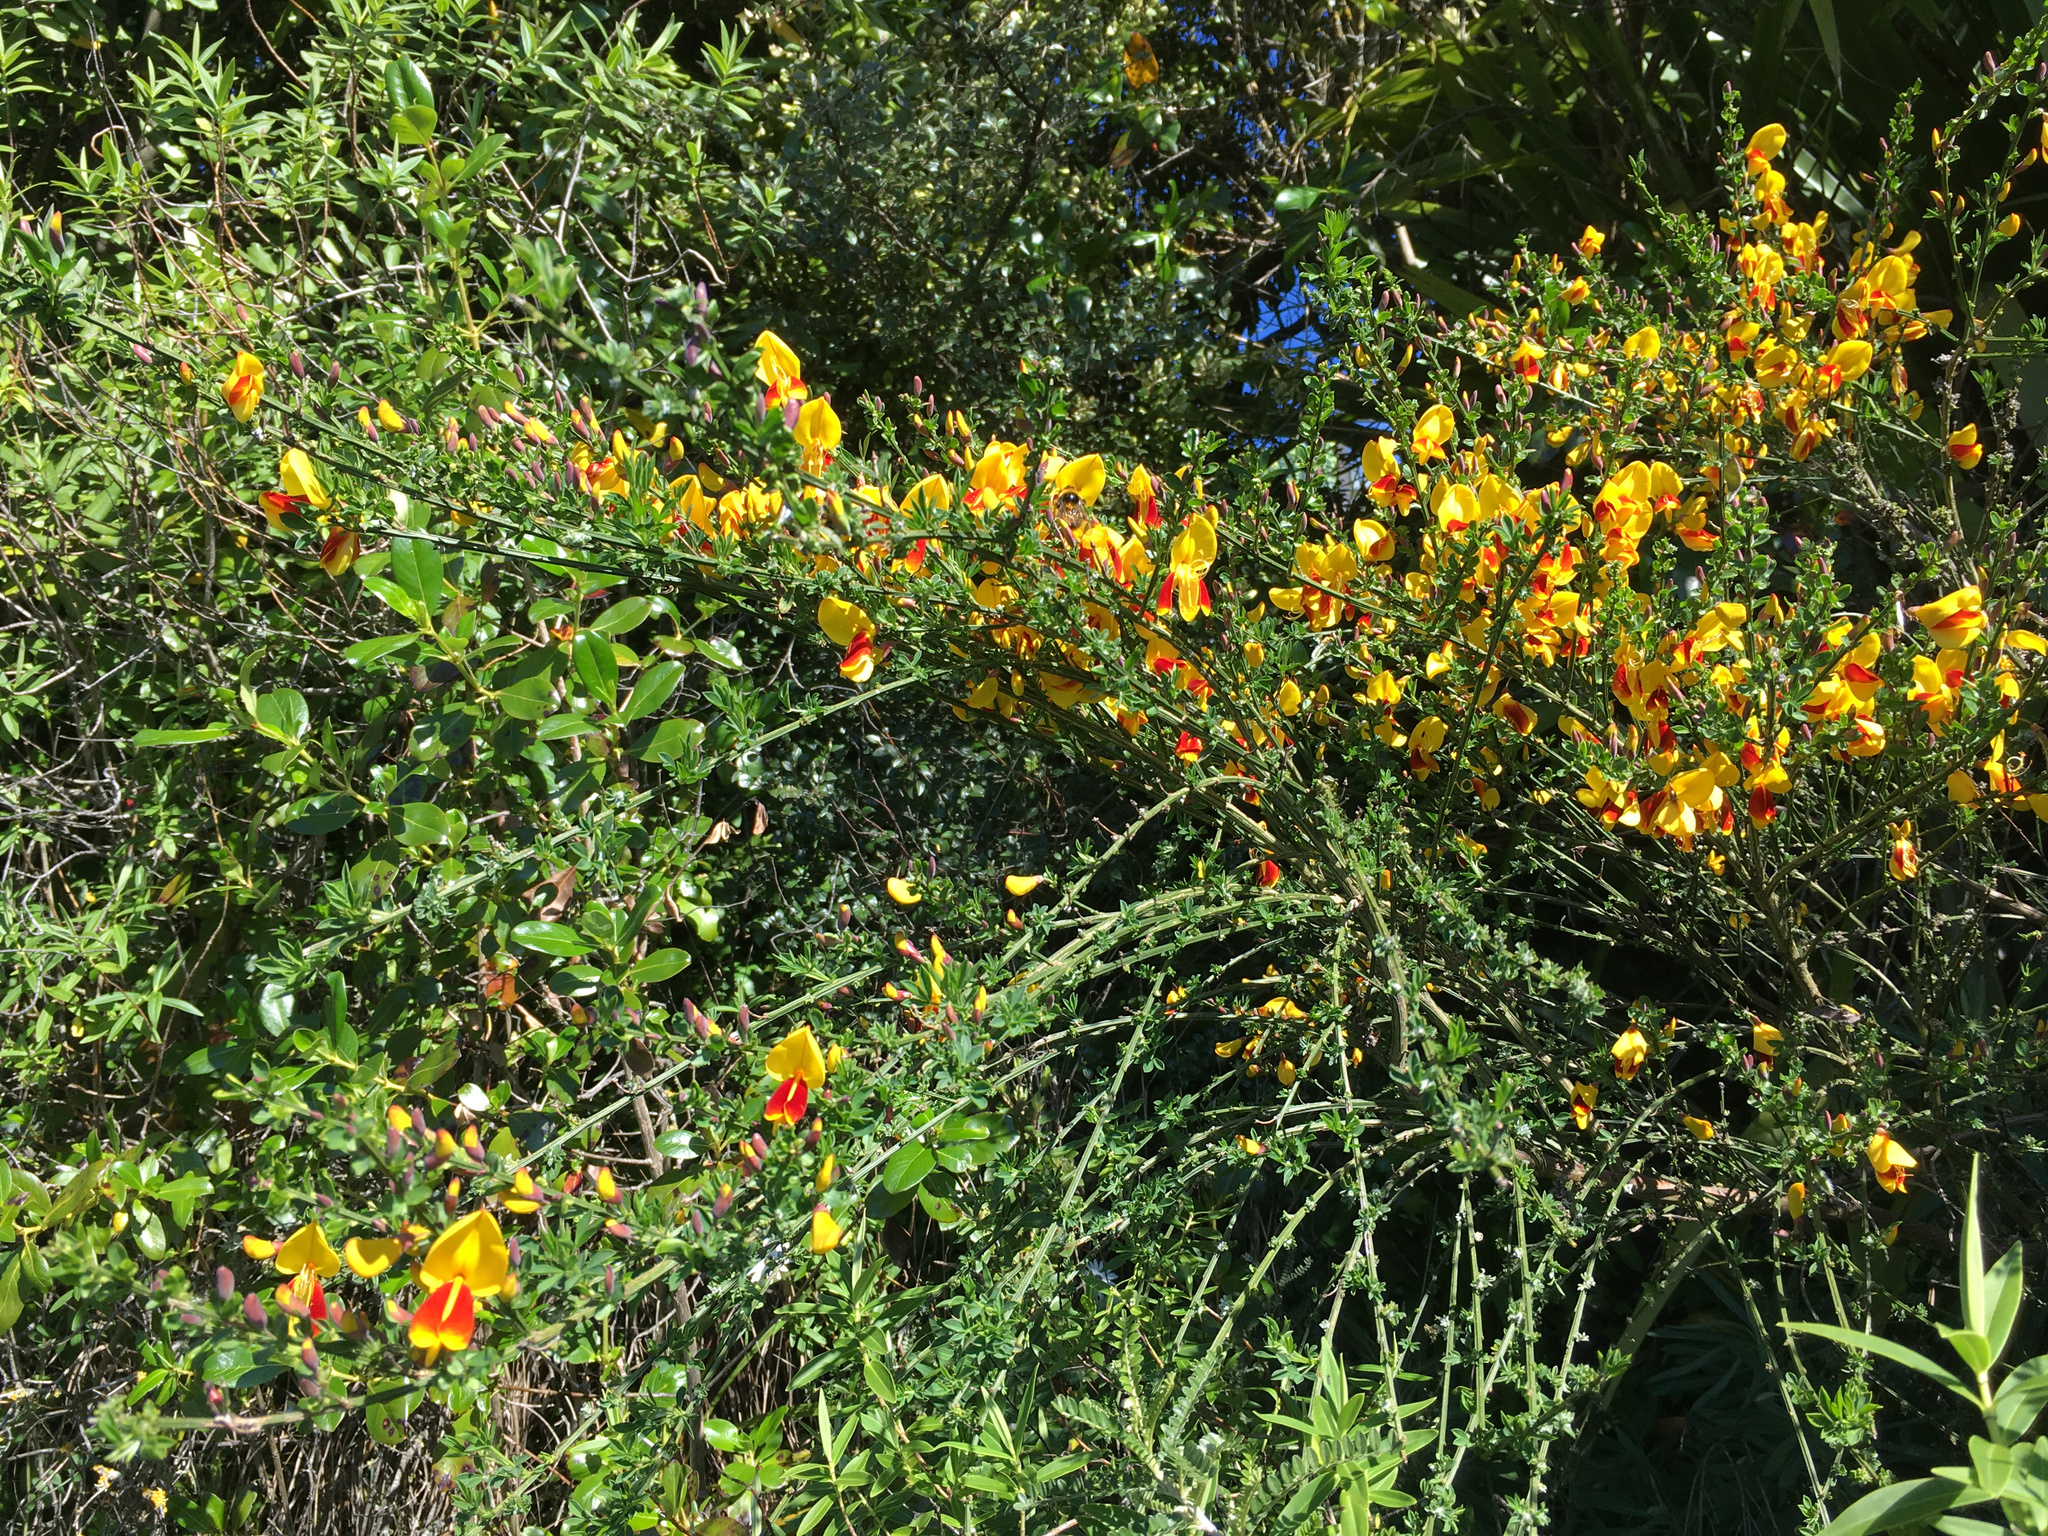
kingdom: Plantae
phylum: Tracheophyta
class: Magnoliopsida
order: Fabales
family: Fabaceae
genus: Cytisus
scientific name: Cytisus scoparius
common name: Scotch broom
